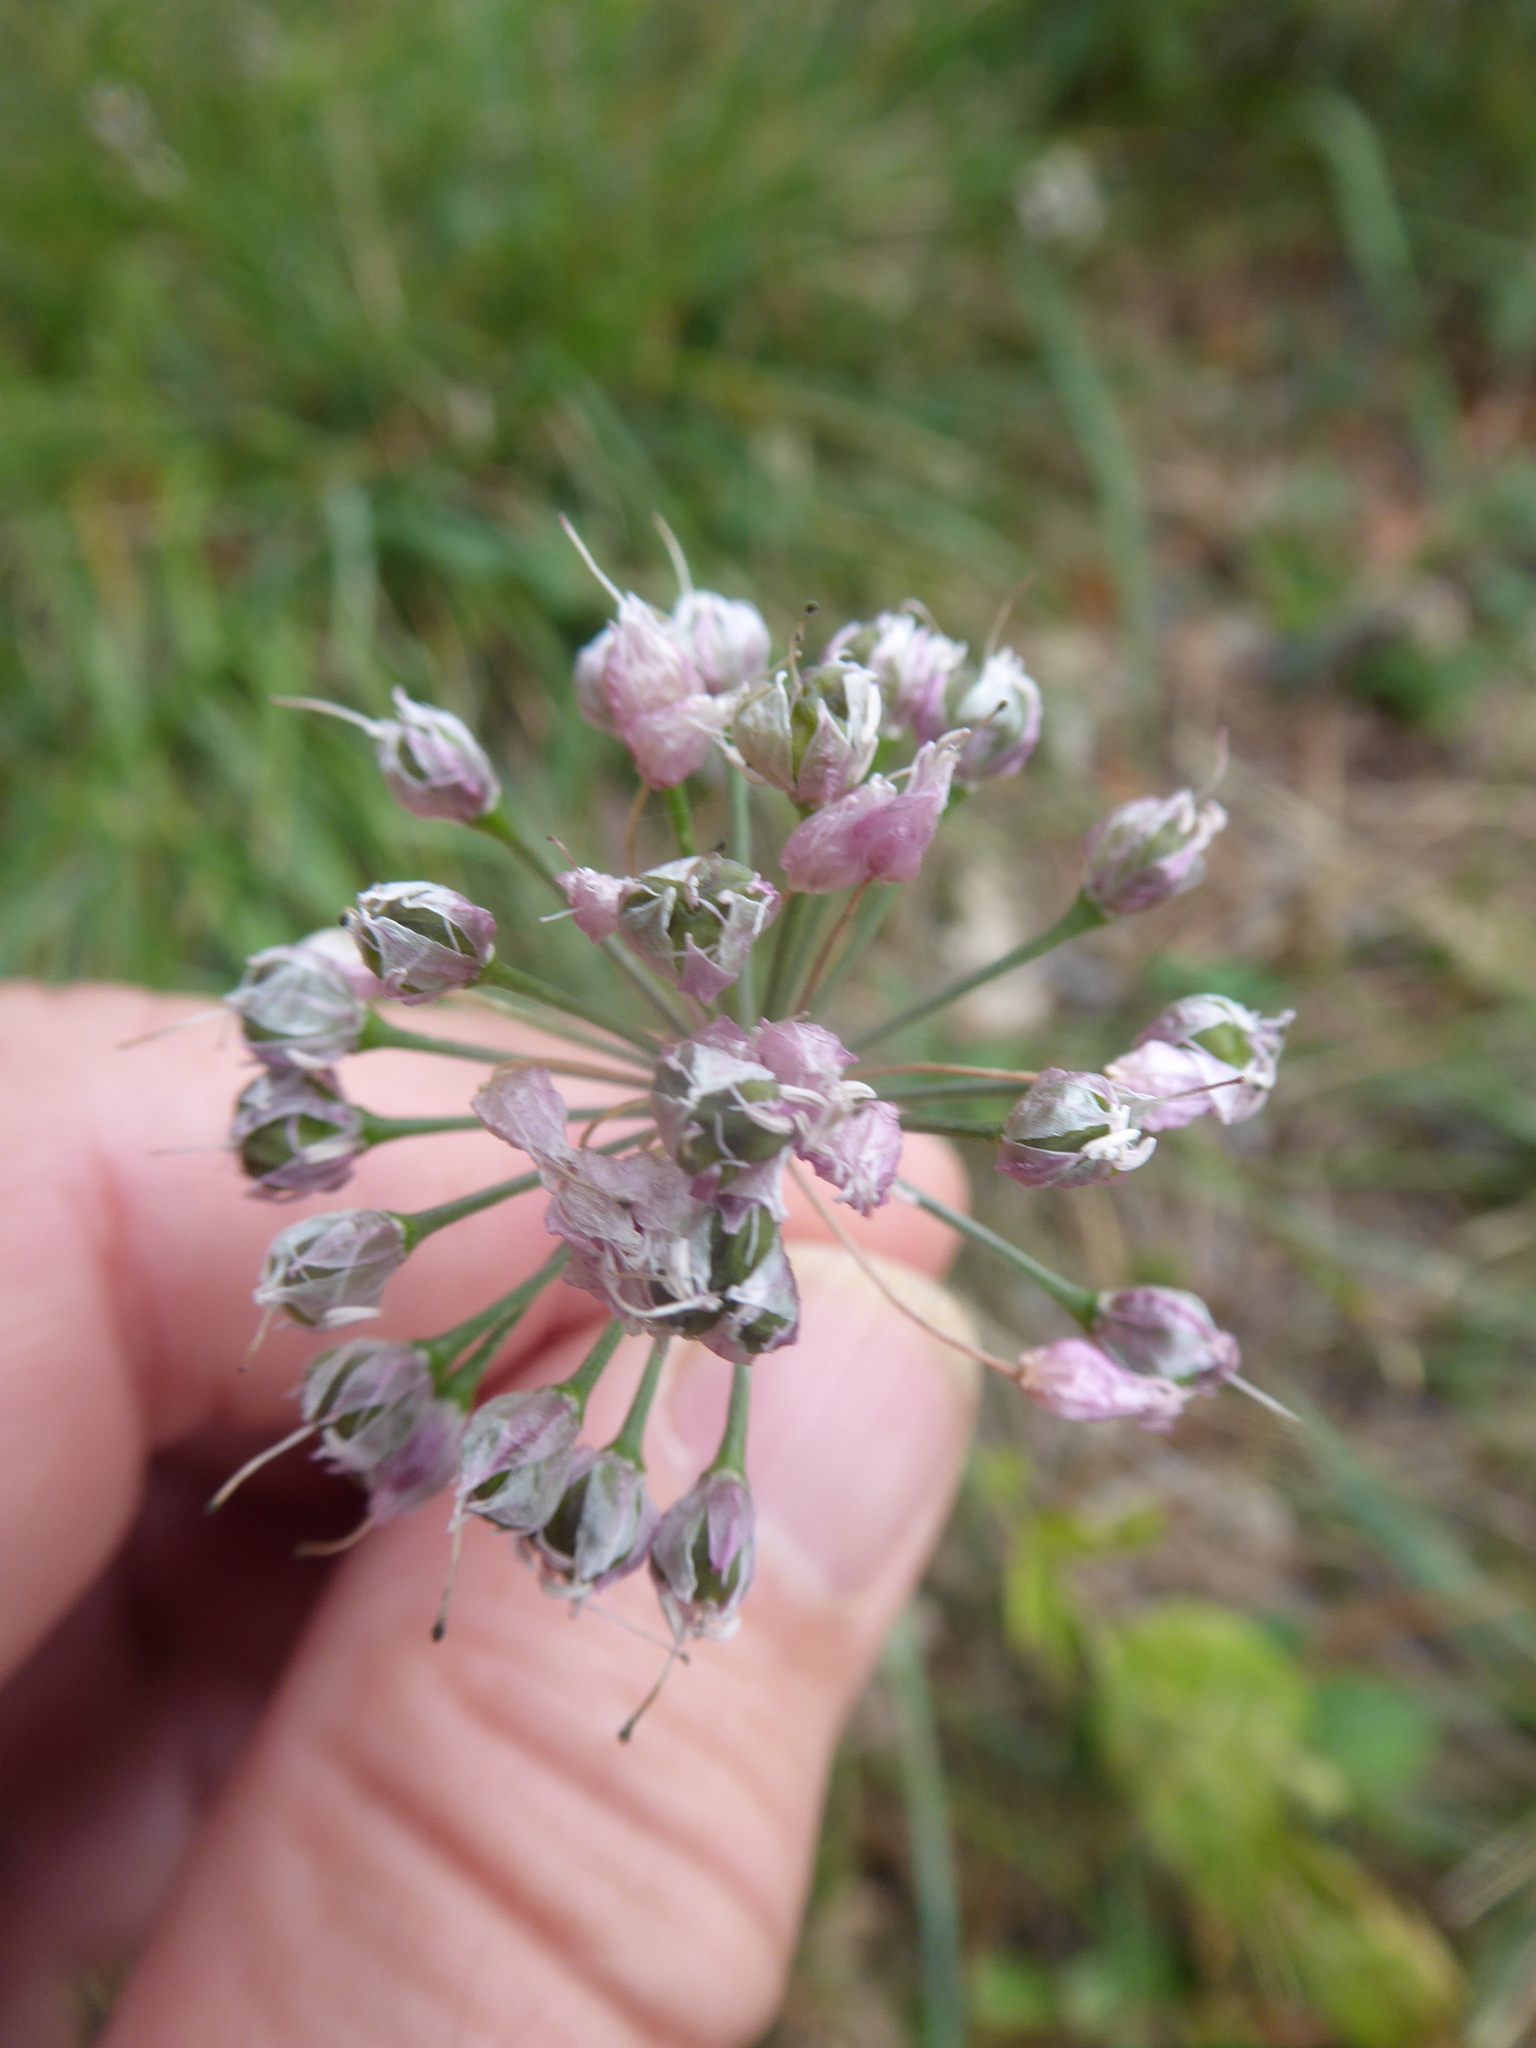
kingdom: Plantae
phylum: Tracheophyta
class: Liliopsida
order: Asparagales
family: Amaryllidaceae
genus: Allium
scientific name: Allium lusitanicum
